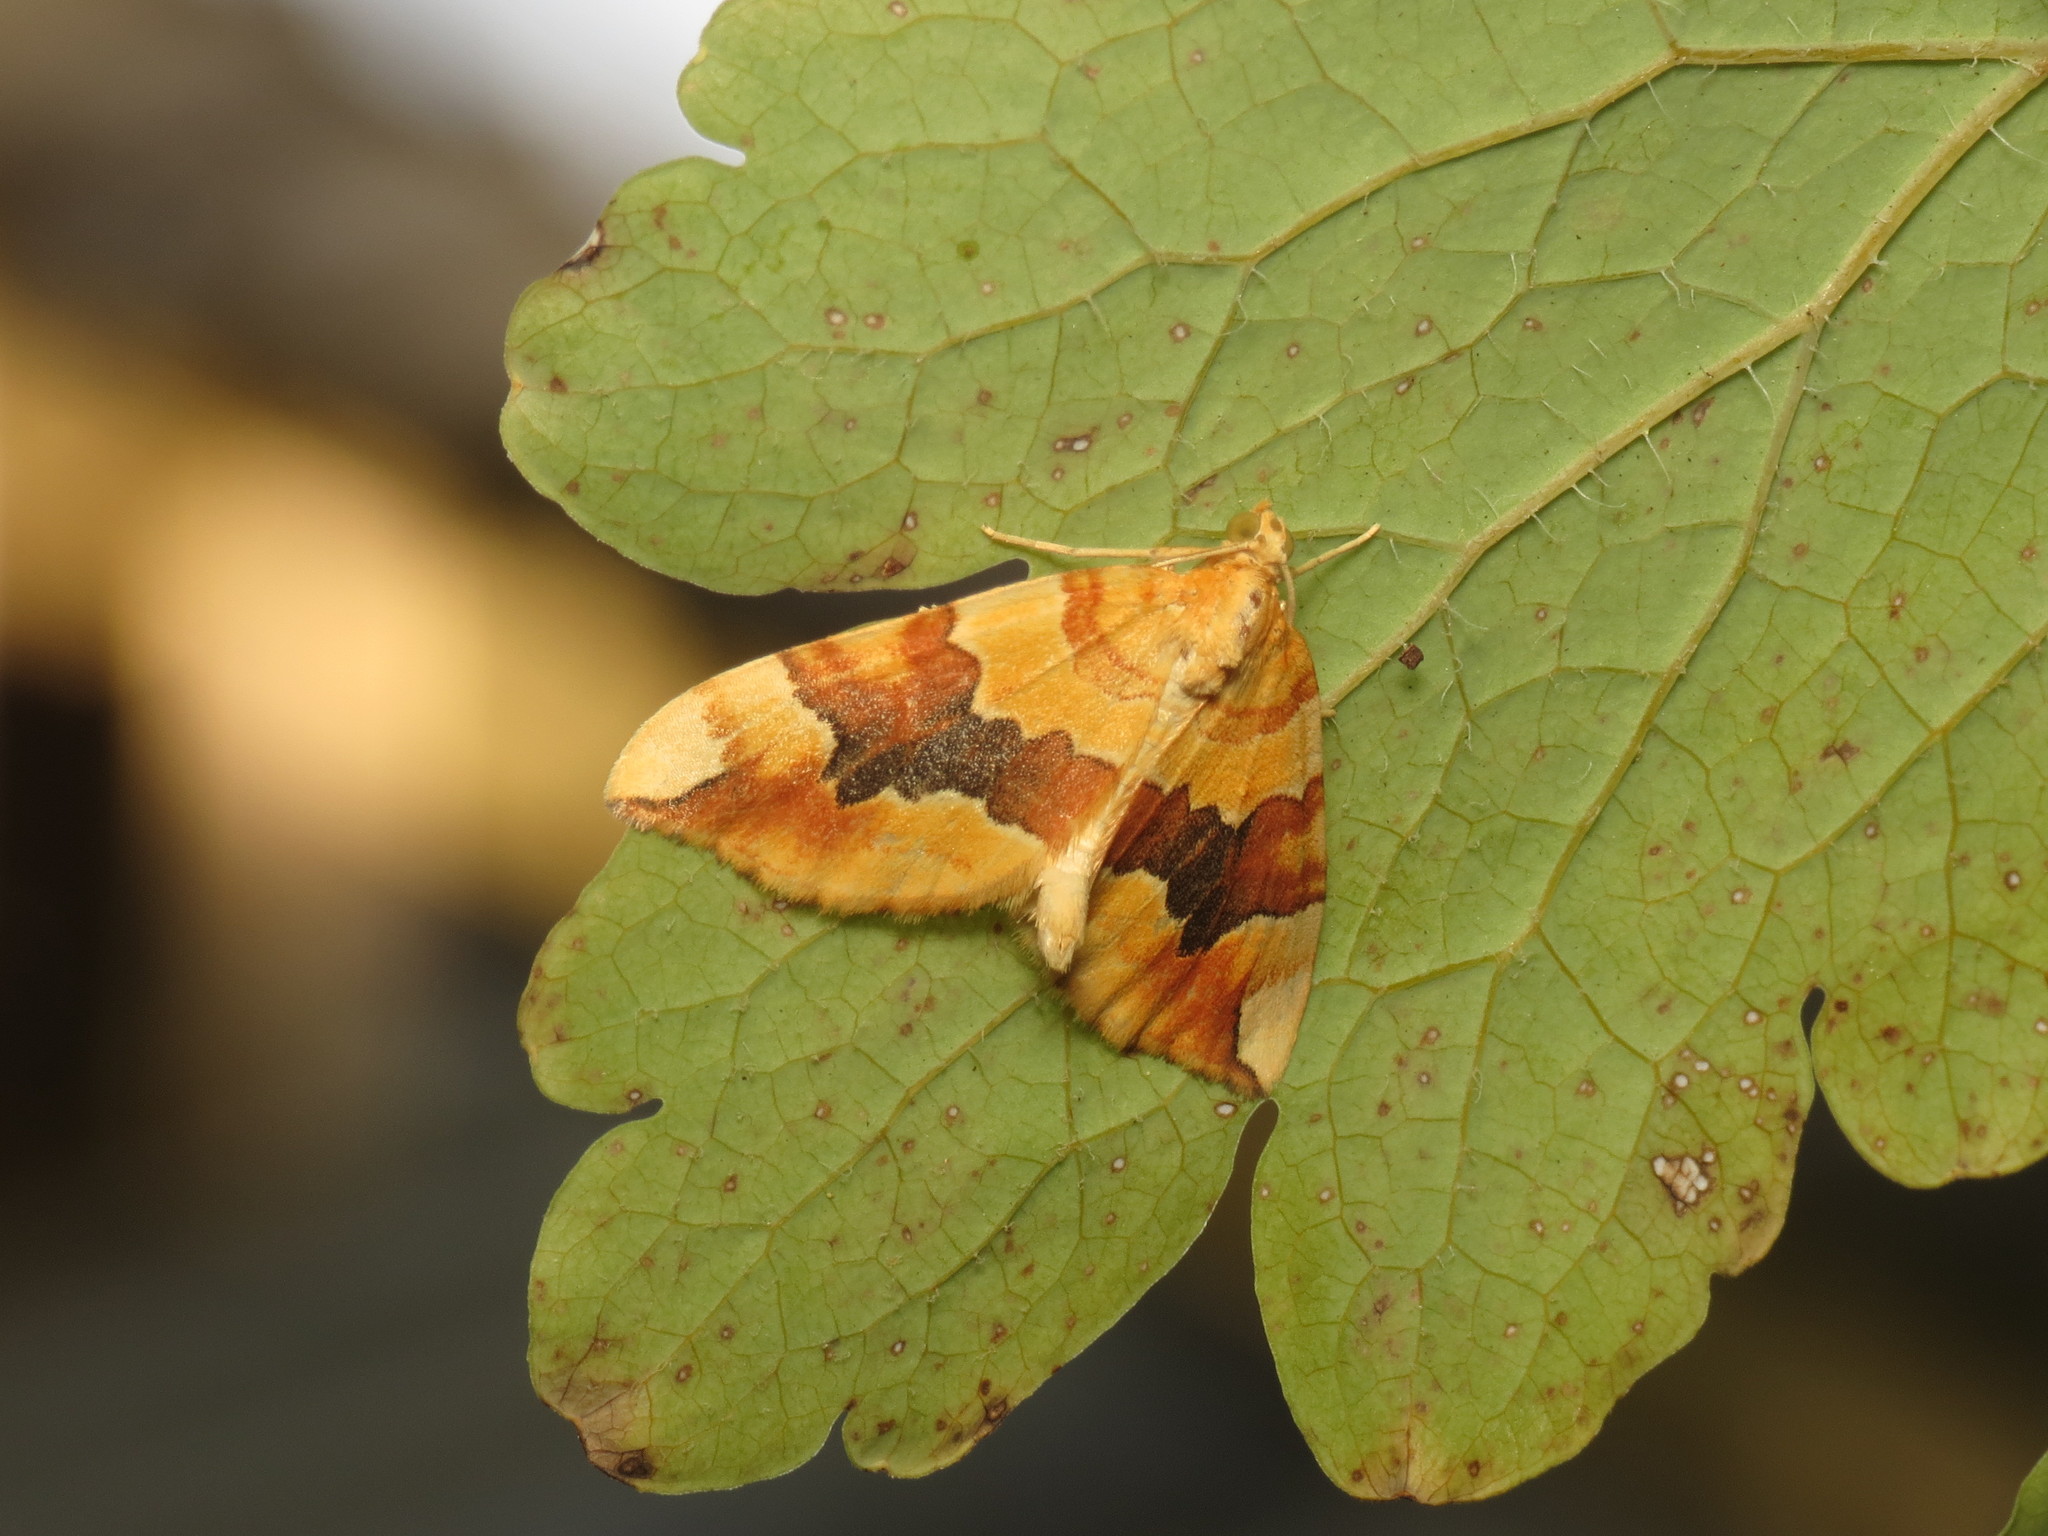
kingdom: Animalia
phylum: Arthropoda
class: Insecta
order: Lepidoptera
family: Geometridae
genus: Cidaria
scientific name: Cidaria fulvata
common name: Barred yellow
